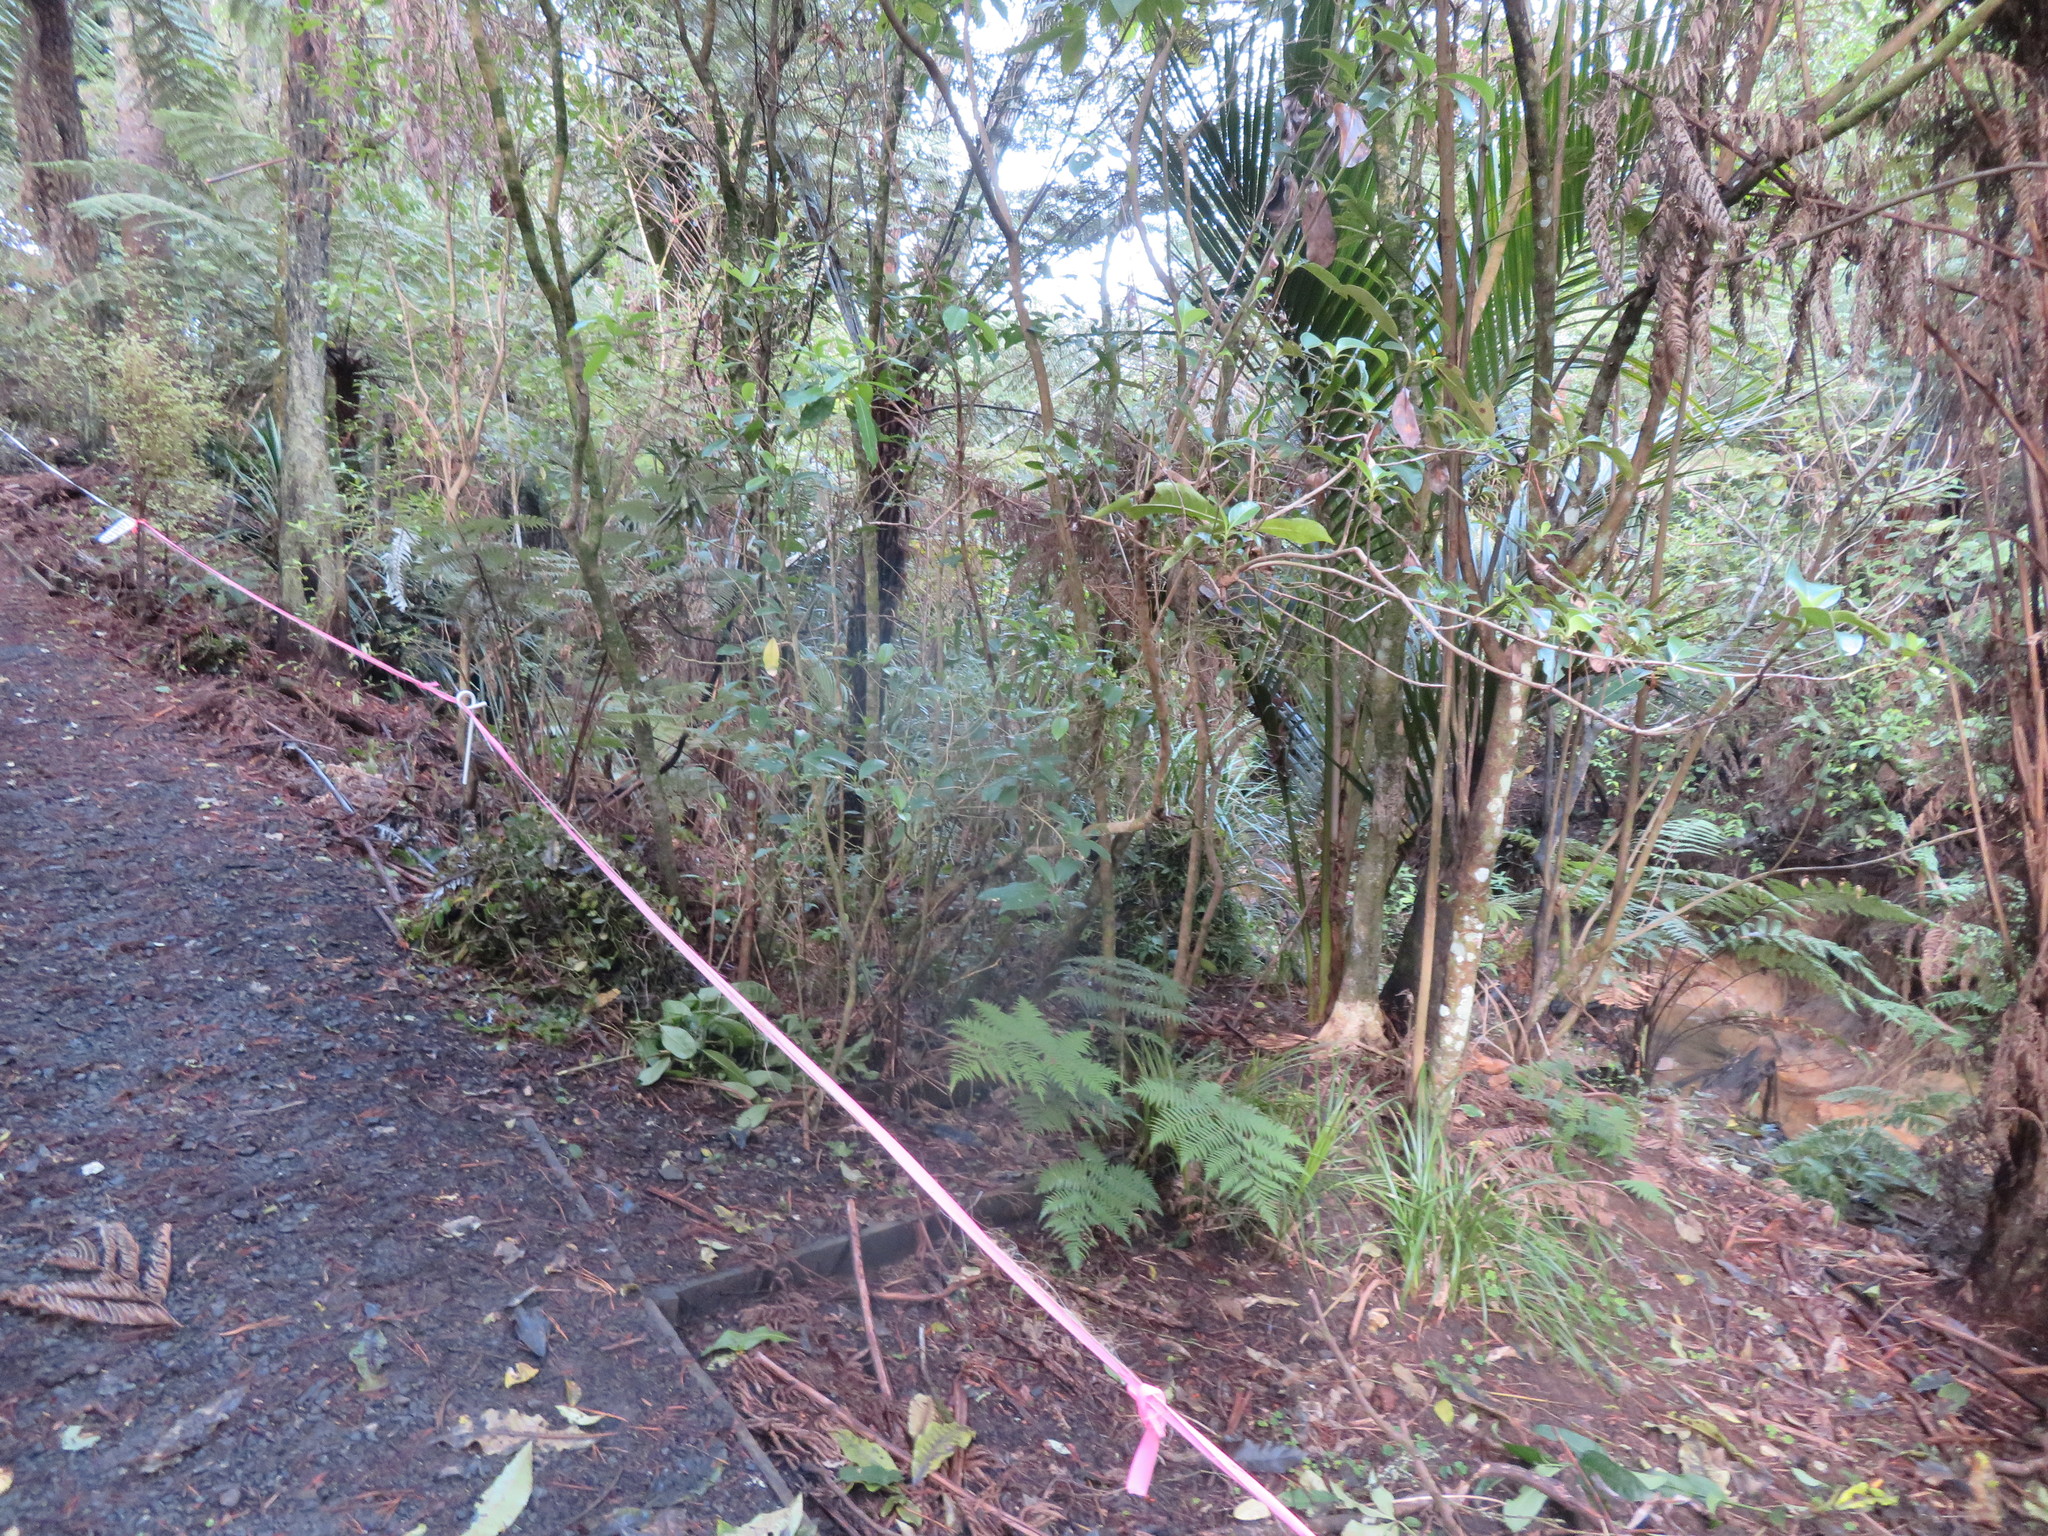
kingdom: Plantae
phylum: Tracheophyta
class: Liliopsida
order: Arecales
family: Arecaceae
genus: Rhopalostylis
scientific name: Rhopalostylis sapida
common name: Feather-duster palm
